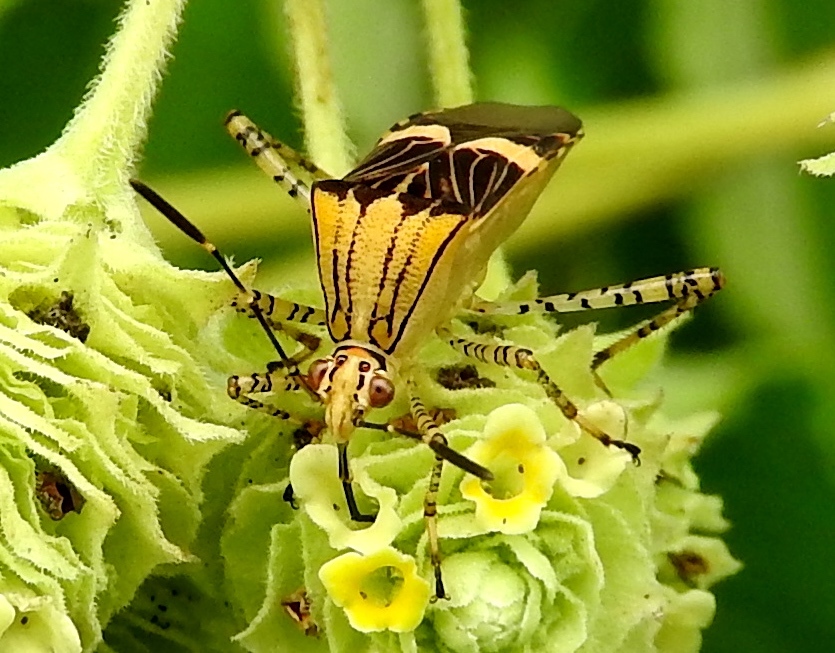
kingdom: Animalia
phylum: Arthropoda
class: Insecta
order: Hemiptera
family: Coreidae
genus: Hypselonotus
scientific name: Hypselonotus lineatus
